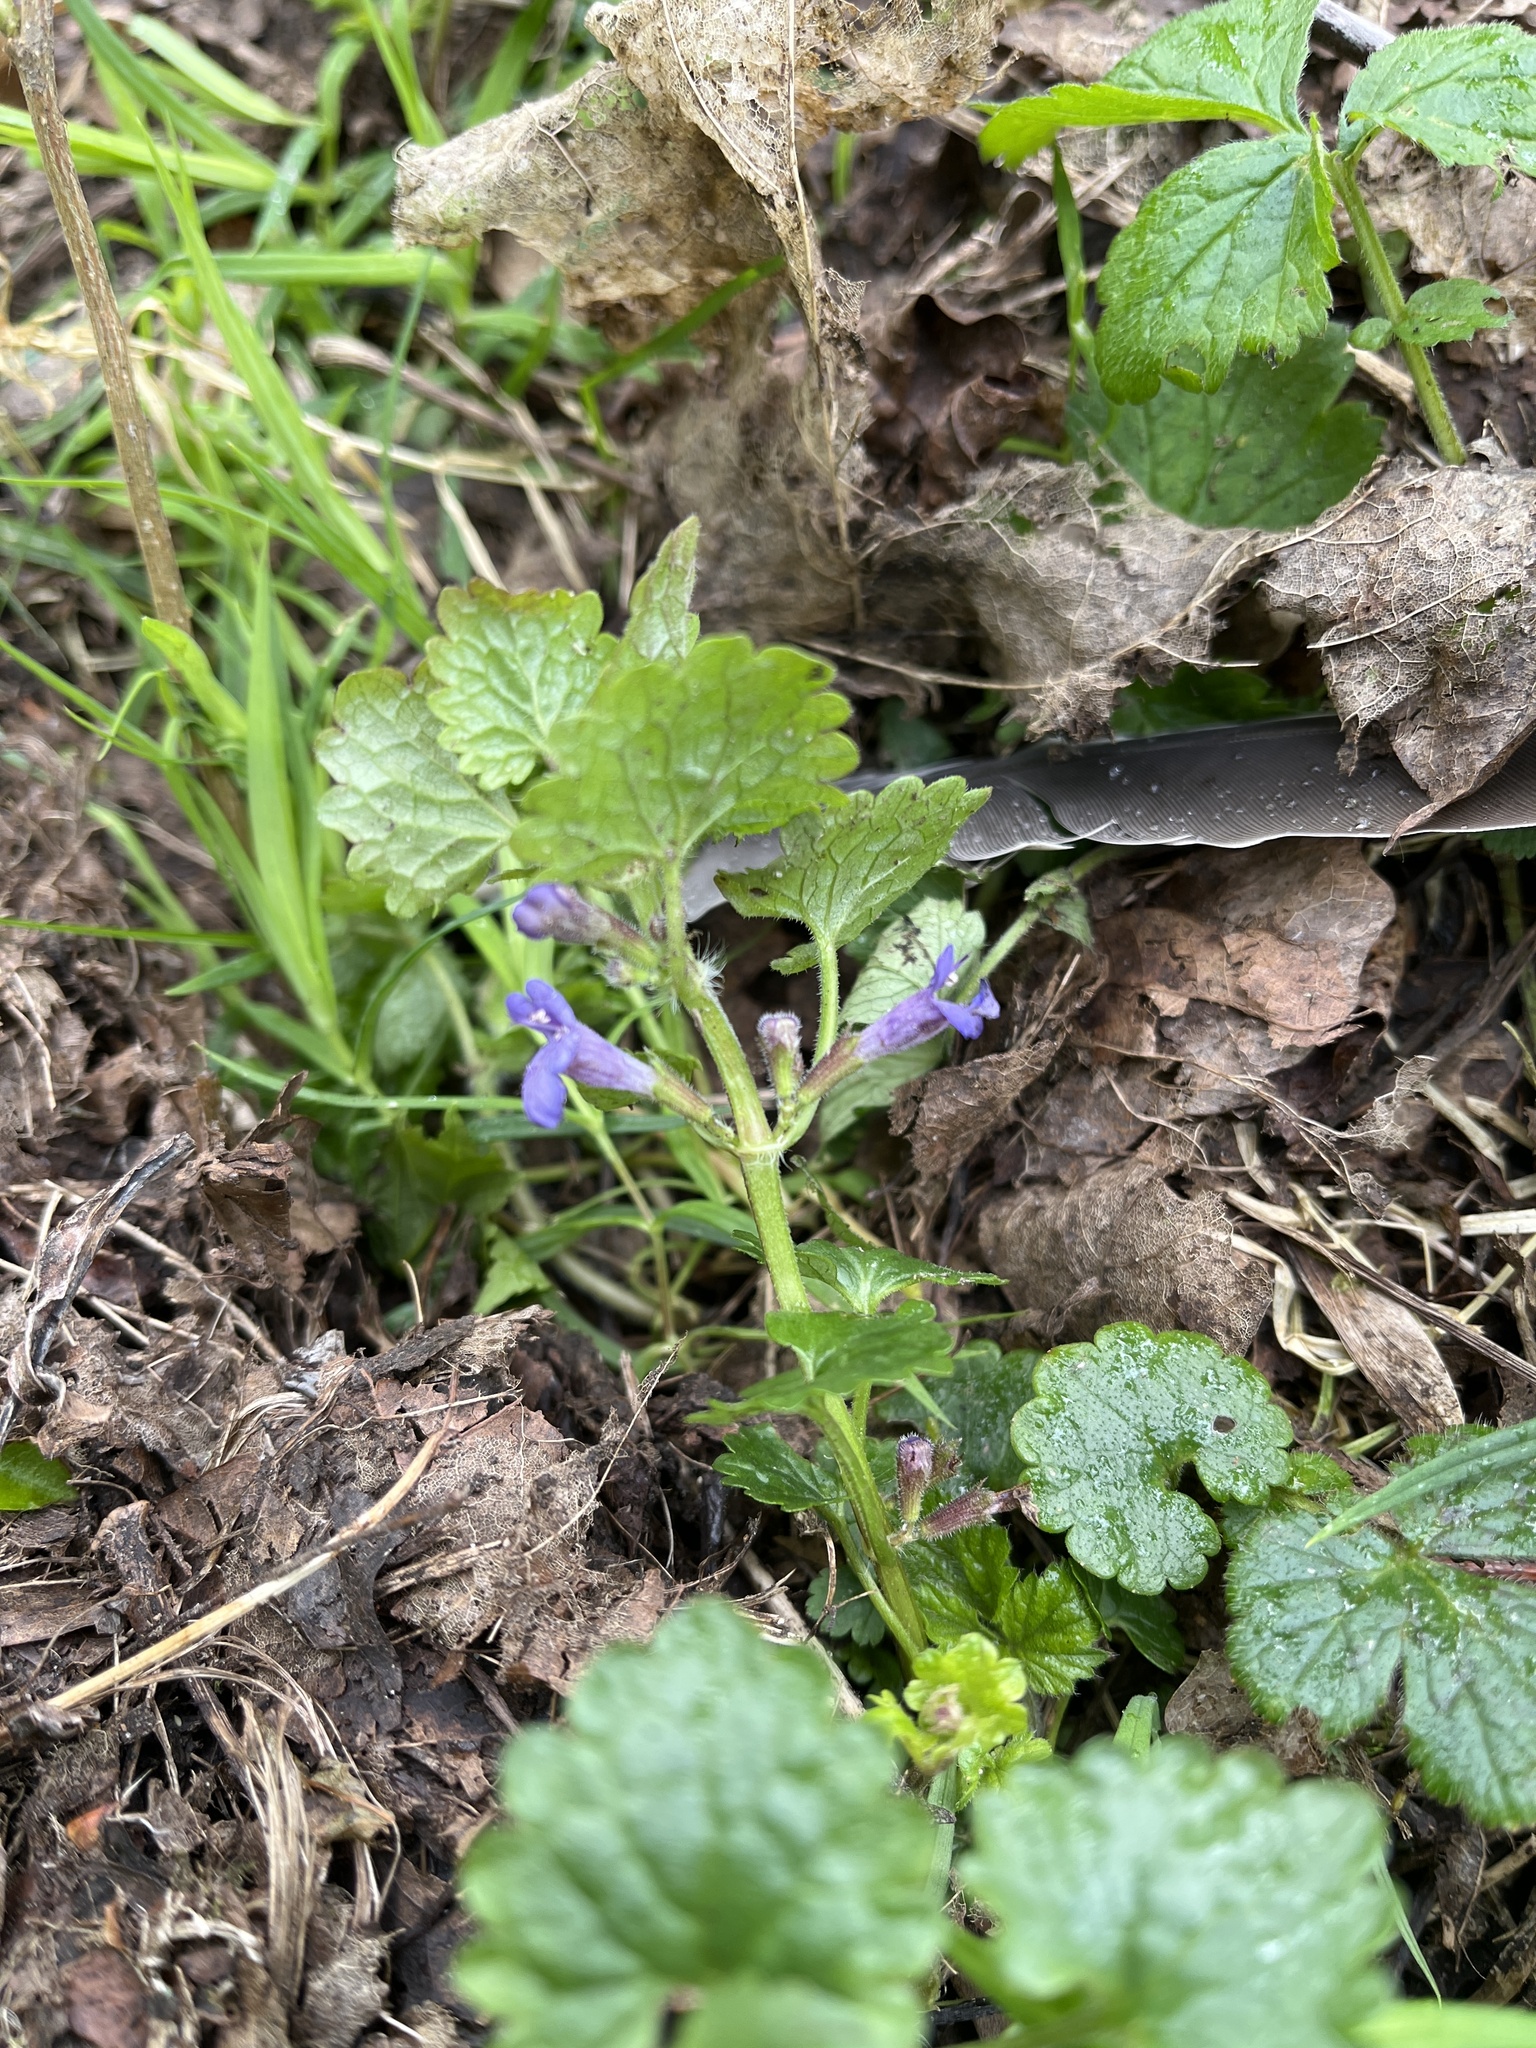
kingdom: Plantae
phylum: Tracheophyta
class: Magnoliopsida
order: Lamiales
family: Lamiaceae
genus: Glechoma
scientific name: Glechoma hederacea
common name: Ground ivy
